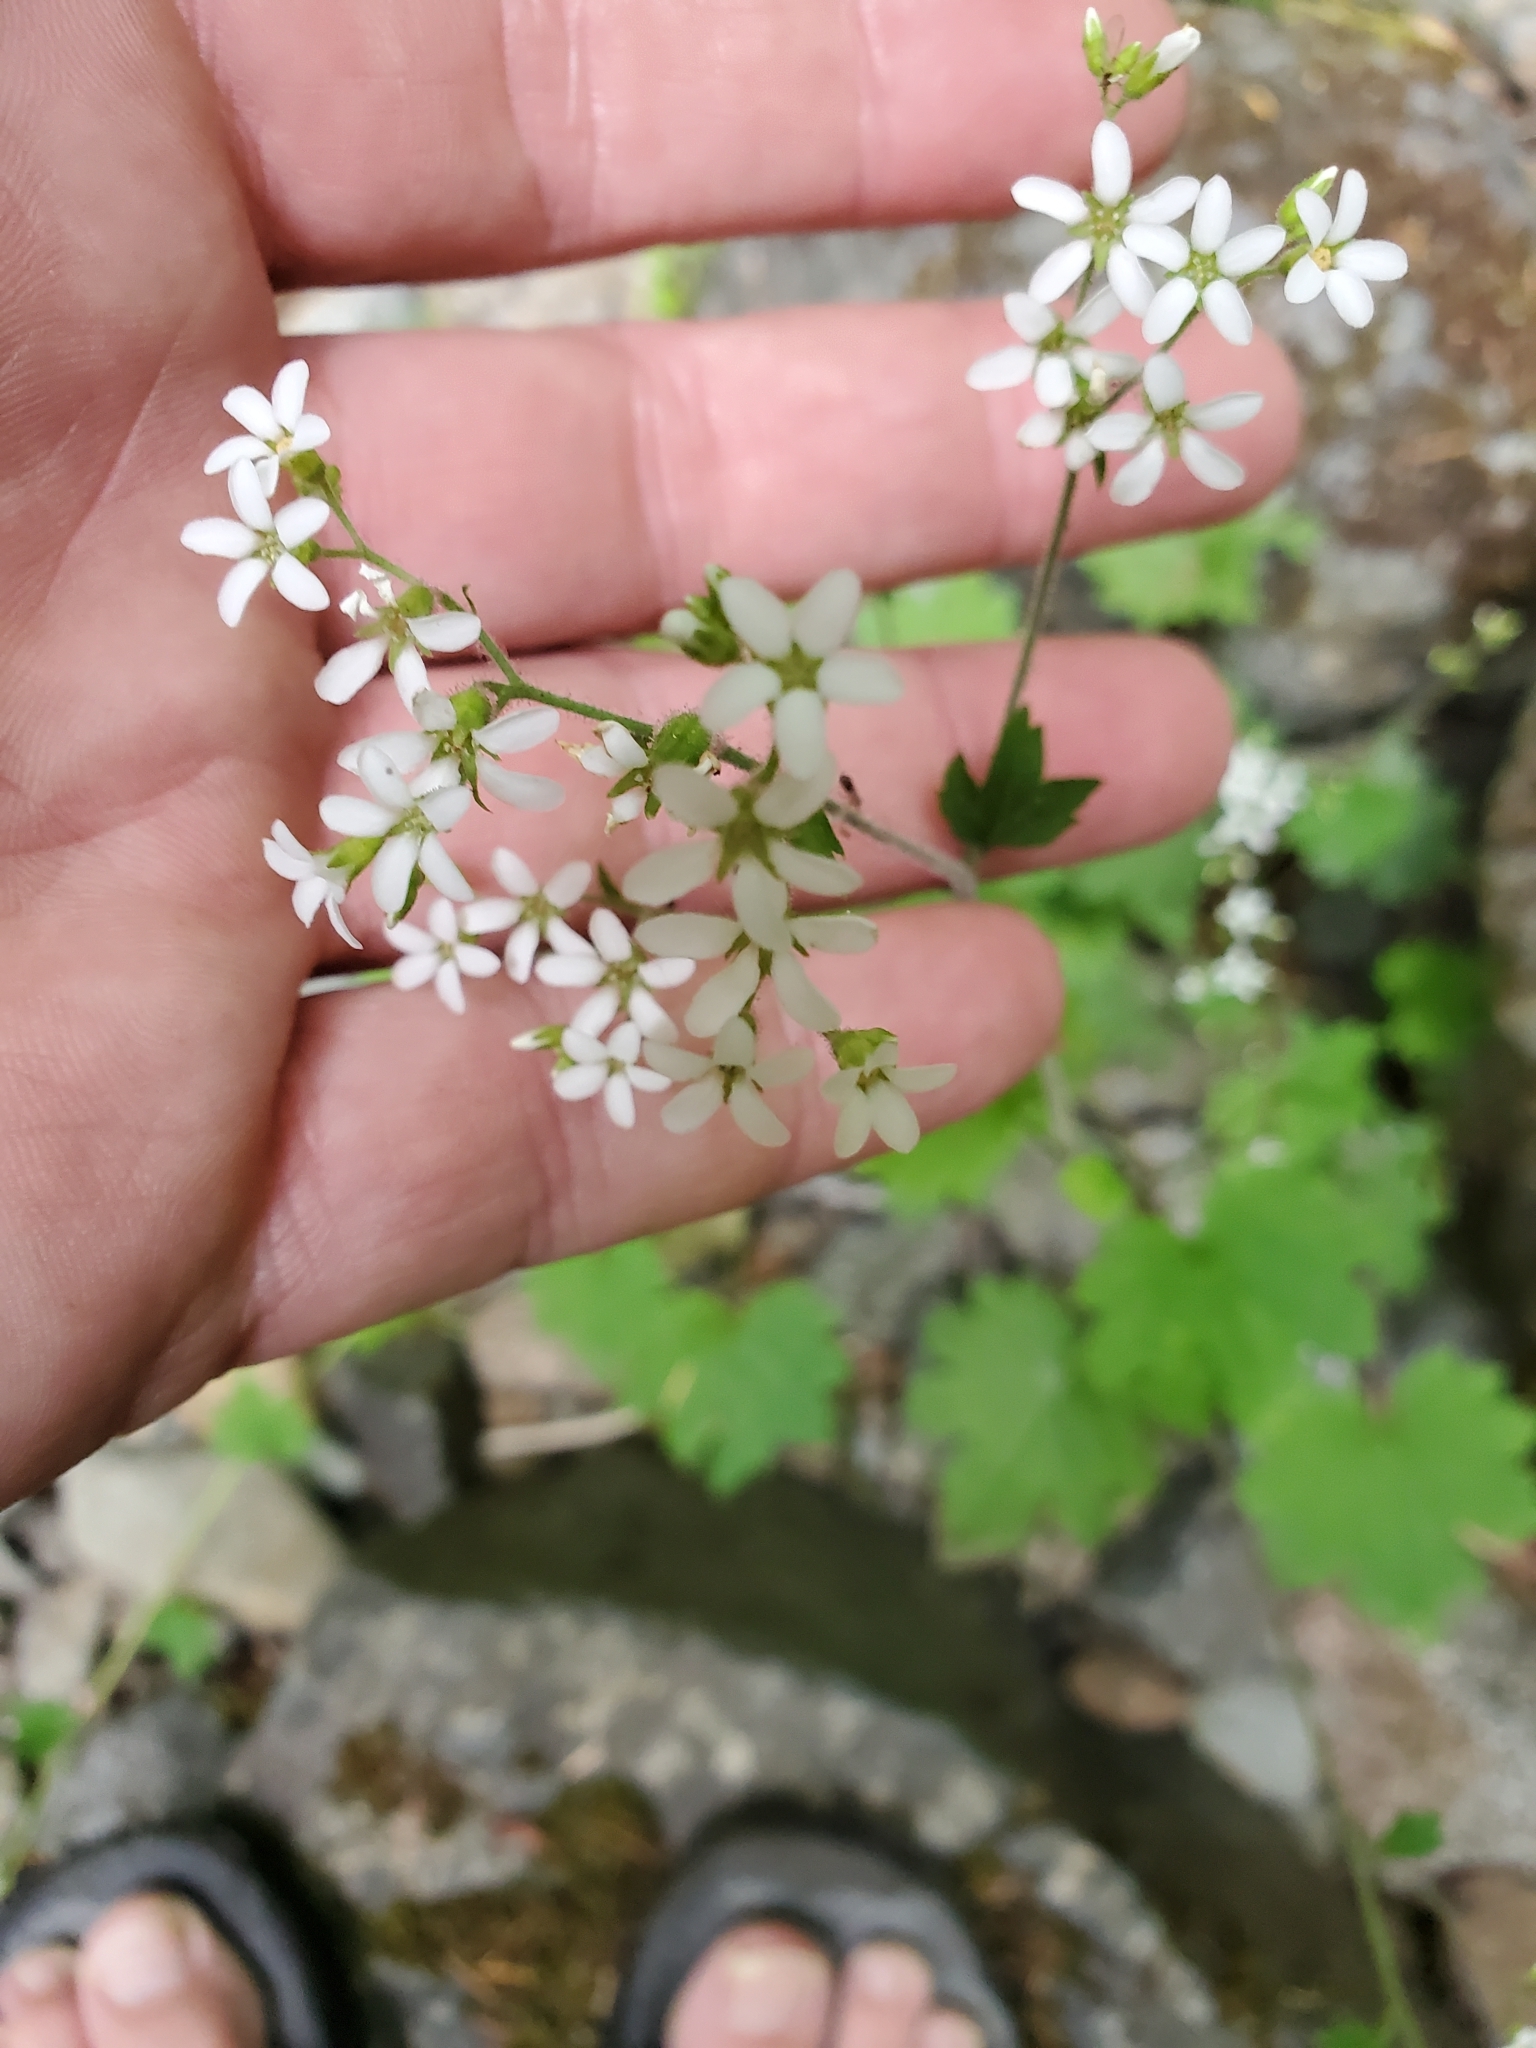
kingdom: Plantae
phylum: Tracheophyta
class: Magnoliopsida
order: Saxifragales
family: Saxifragaceae
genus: Boykinia
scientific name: Boykinia occidentalis
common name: Coast boykinia
